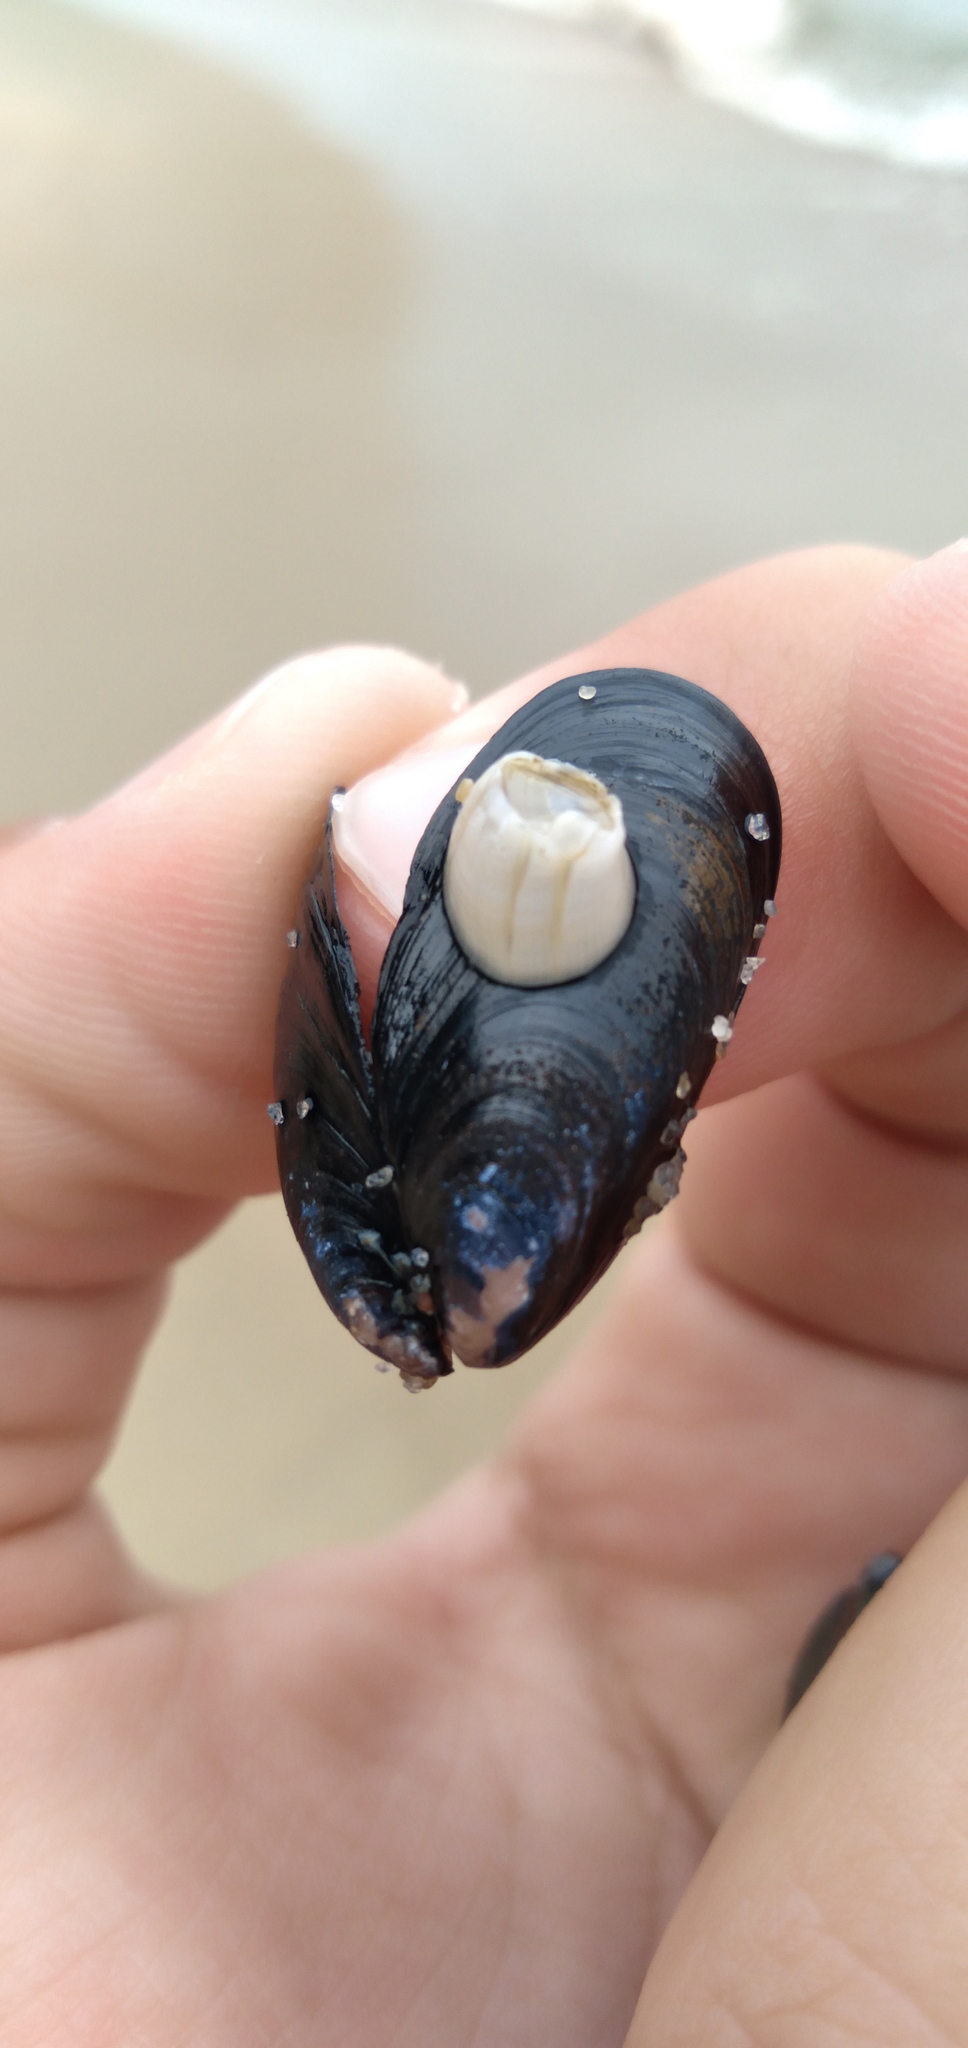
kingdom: Animalia
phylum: Arthropoda
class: Maxillopoda
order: Sessilia
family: Balanidae
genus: Amphibalanus
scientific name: Amphibalanus improvisus
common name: Bay barnacle
